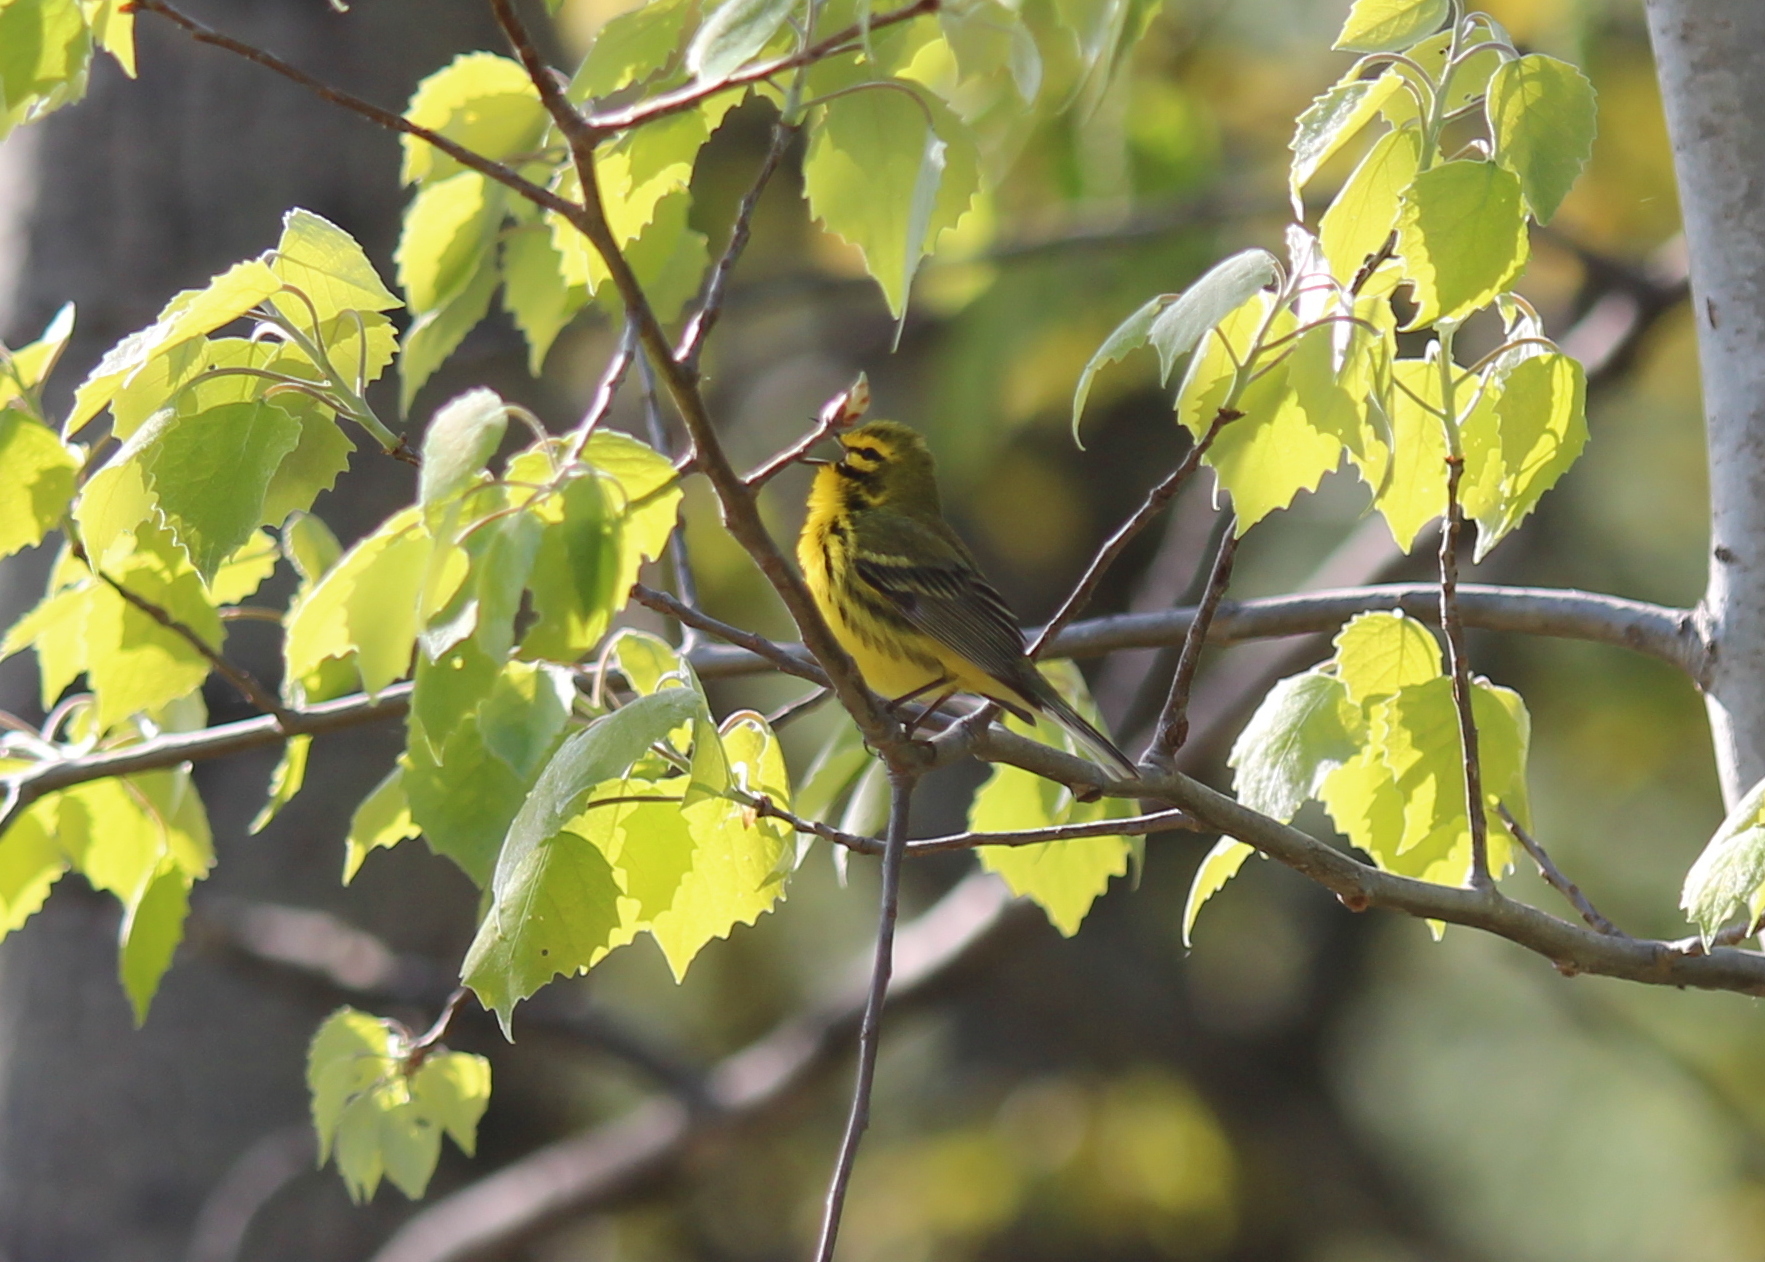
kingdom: Animalia
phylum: Chordata
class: Aves
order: Passeriformes
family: Parulidae
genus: Setophaga
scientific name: Setophaga discolor
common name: Prairie warbler
